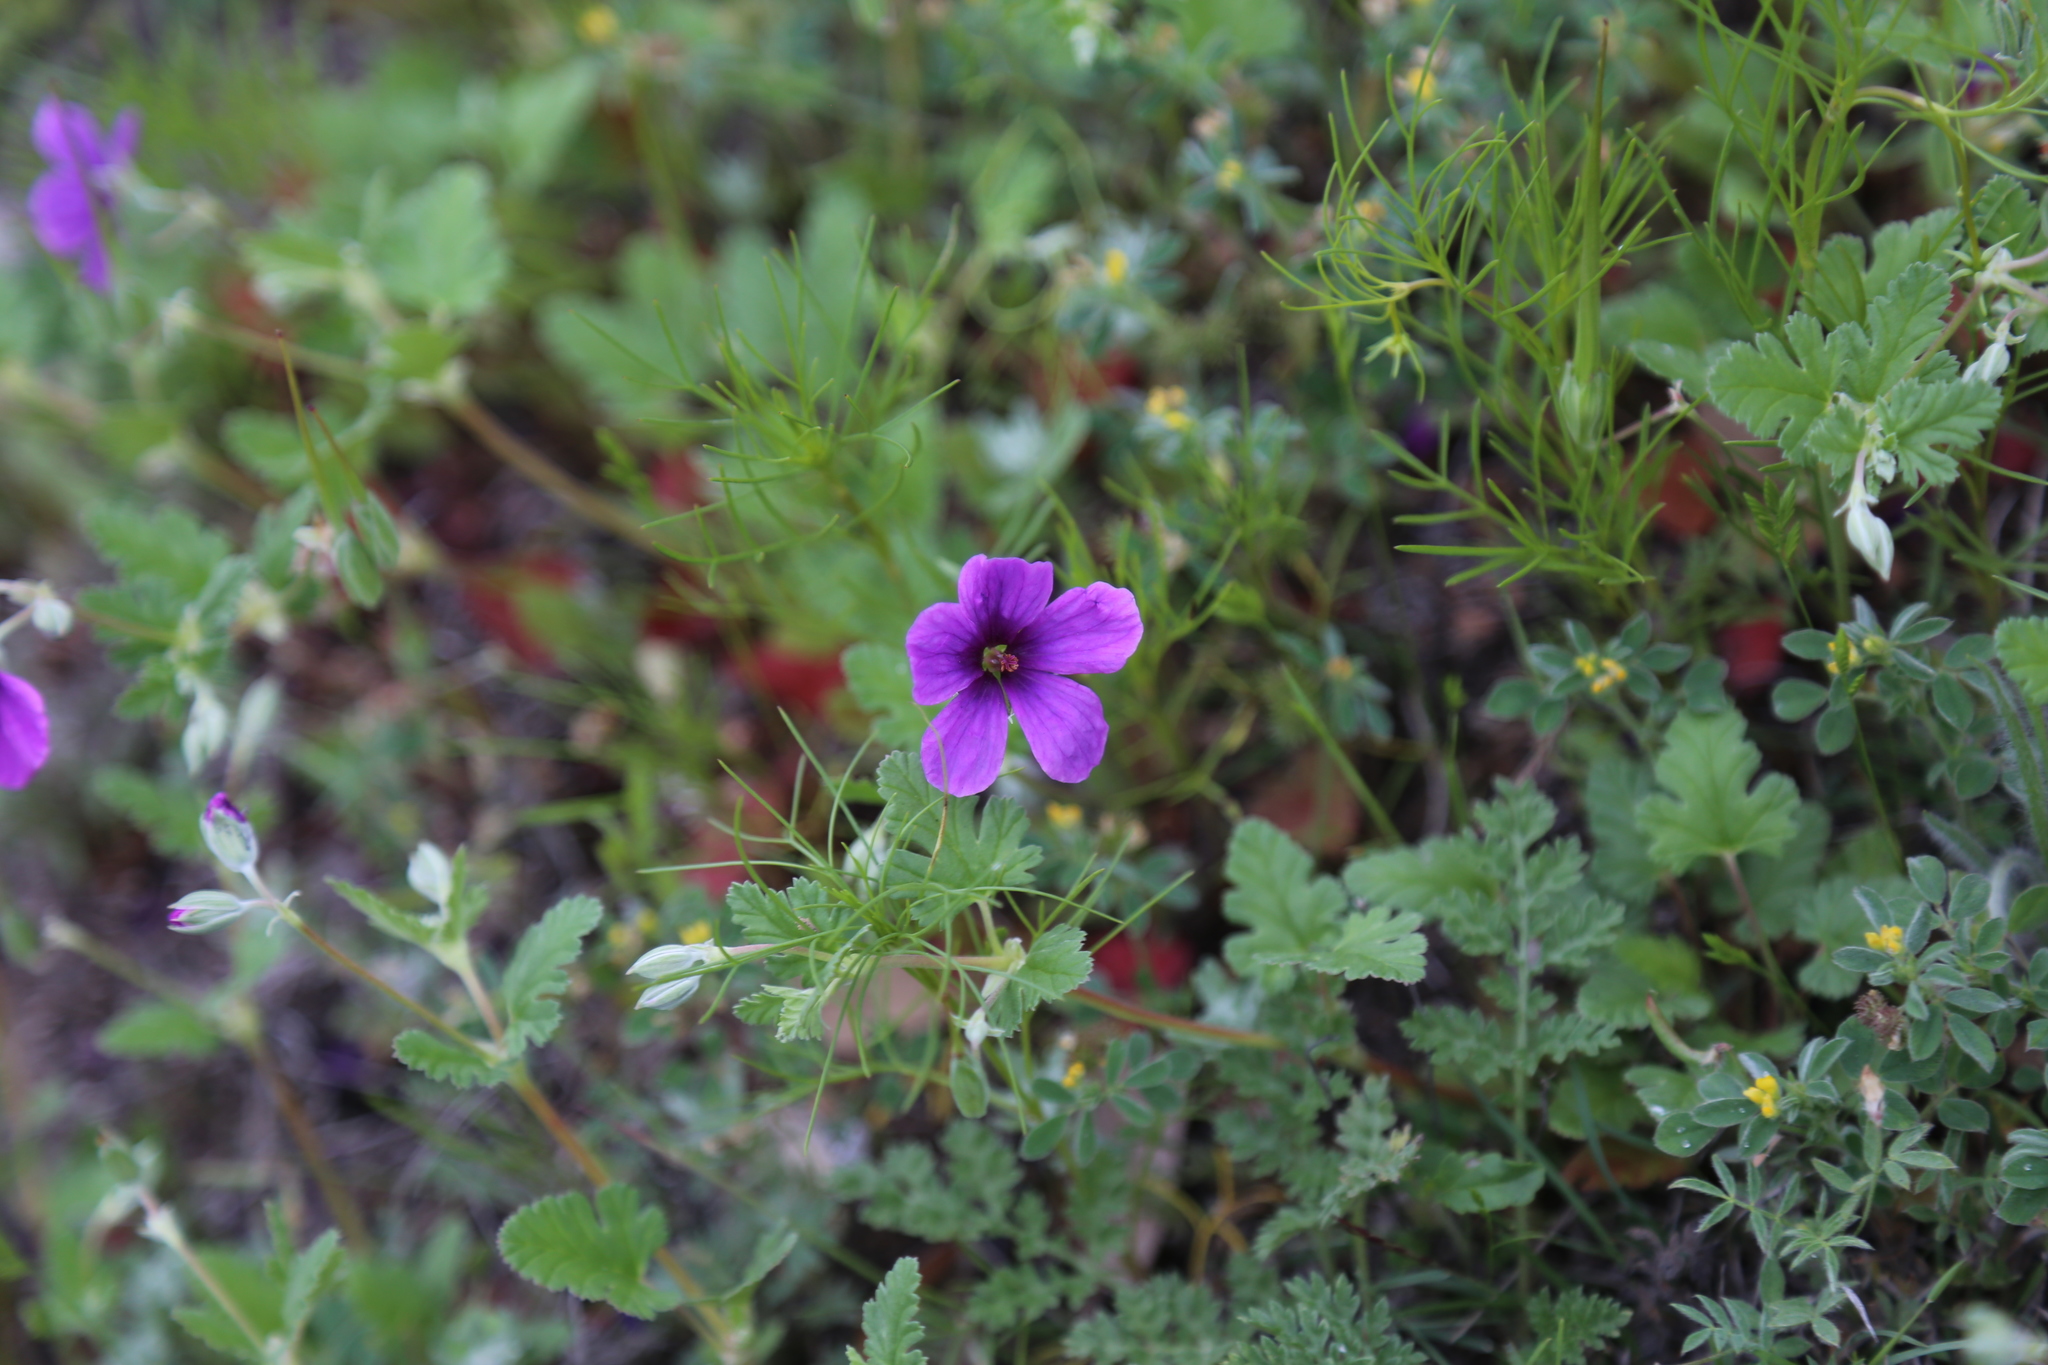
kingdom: Plantae
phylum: Tracheophyta
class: Magnoliopsida
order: Geraniales
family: Geraniaceae
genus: Erodium
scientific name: Erodium texanum
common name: Texas stork's-bill
